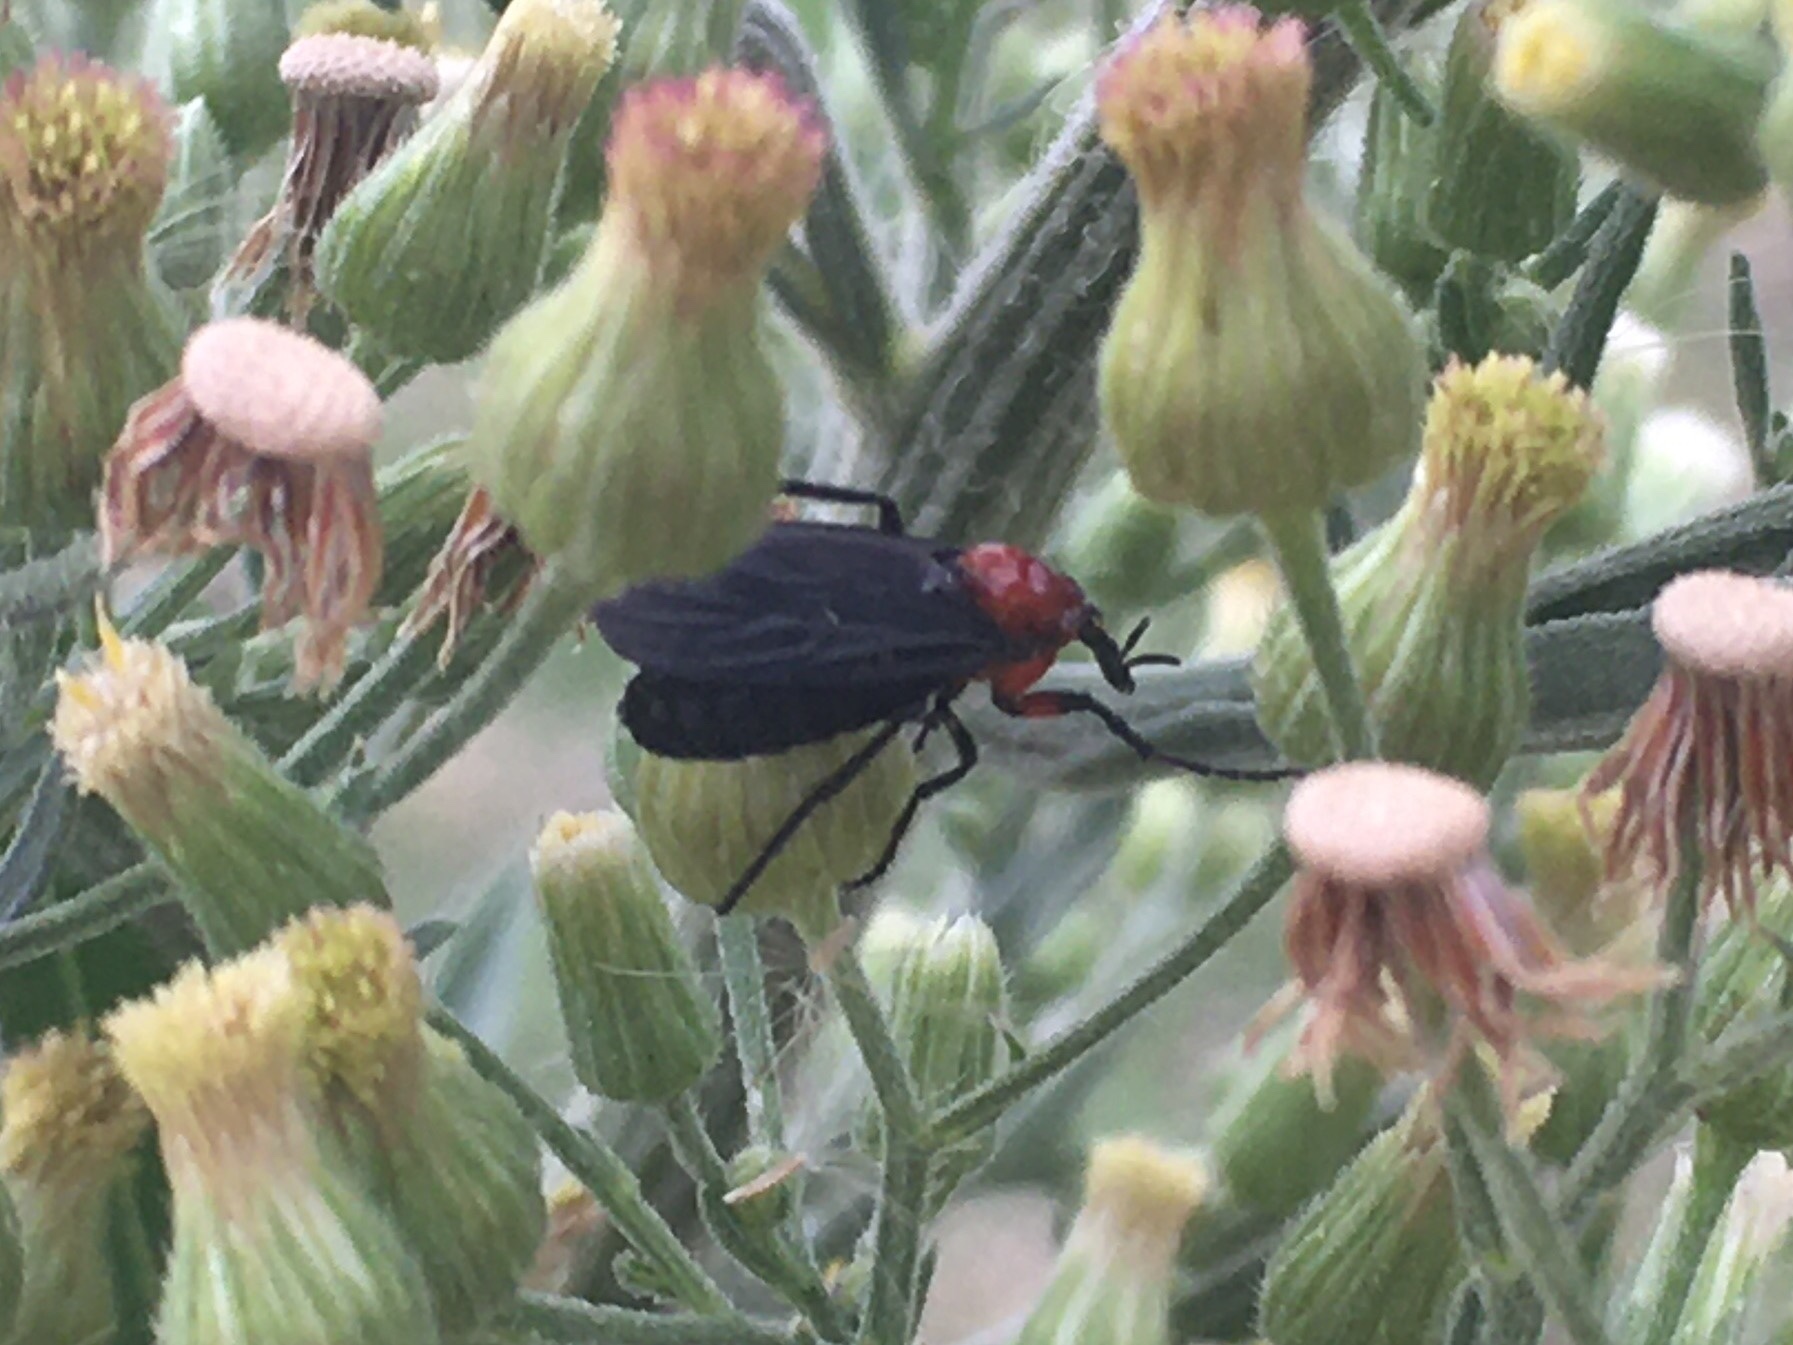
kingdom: Animalia
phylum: Arthropoda
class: Insecta
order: Diptera
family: Bibionidae
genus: Dilophus
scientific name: Dilophus pectoralis
